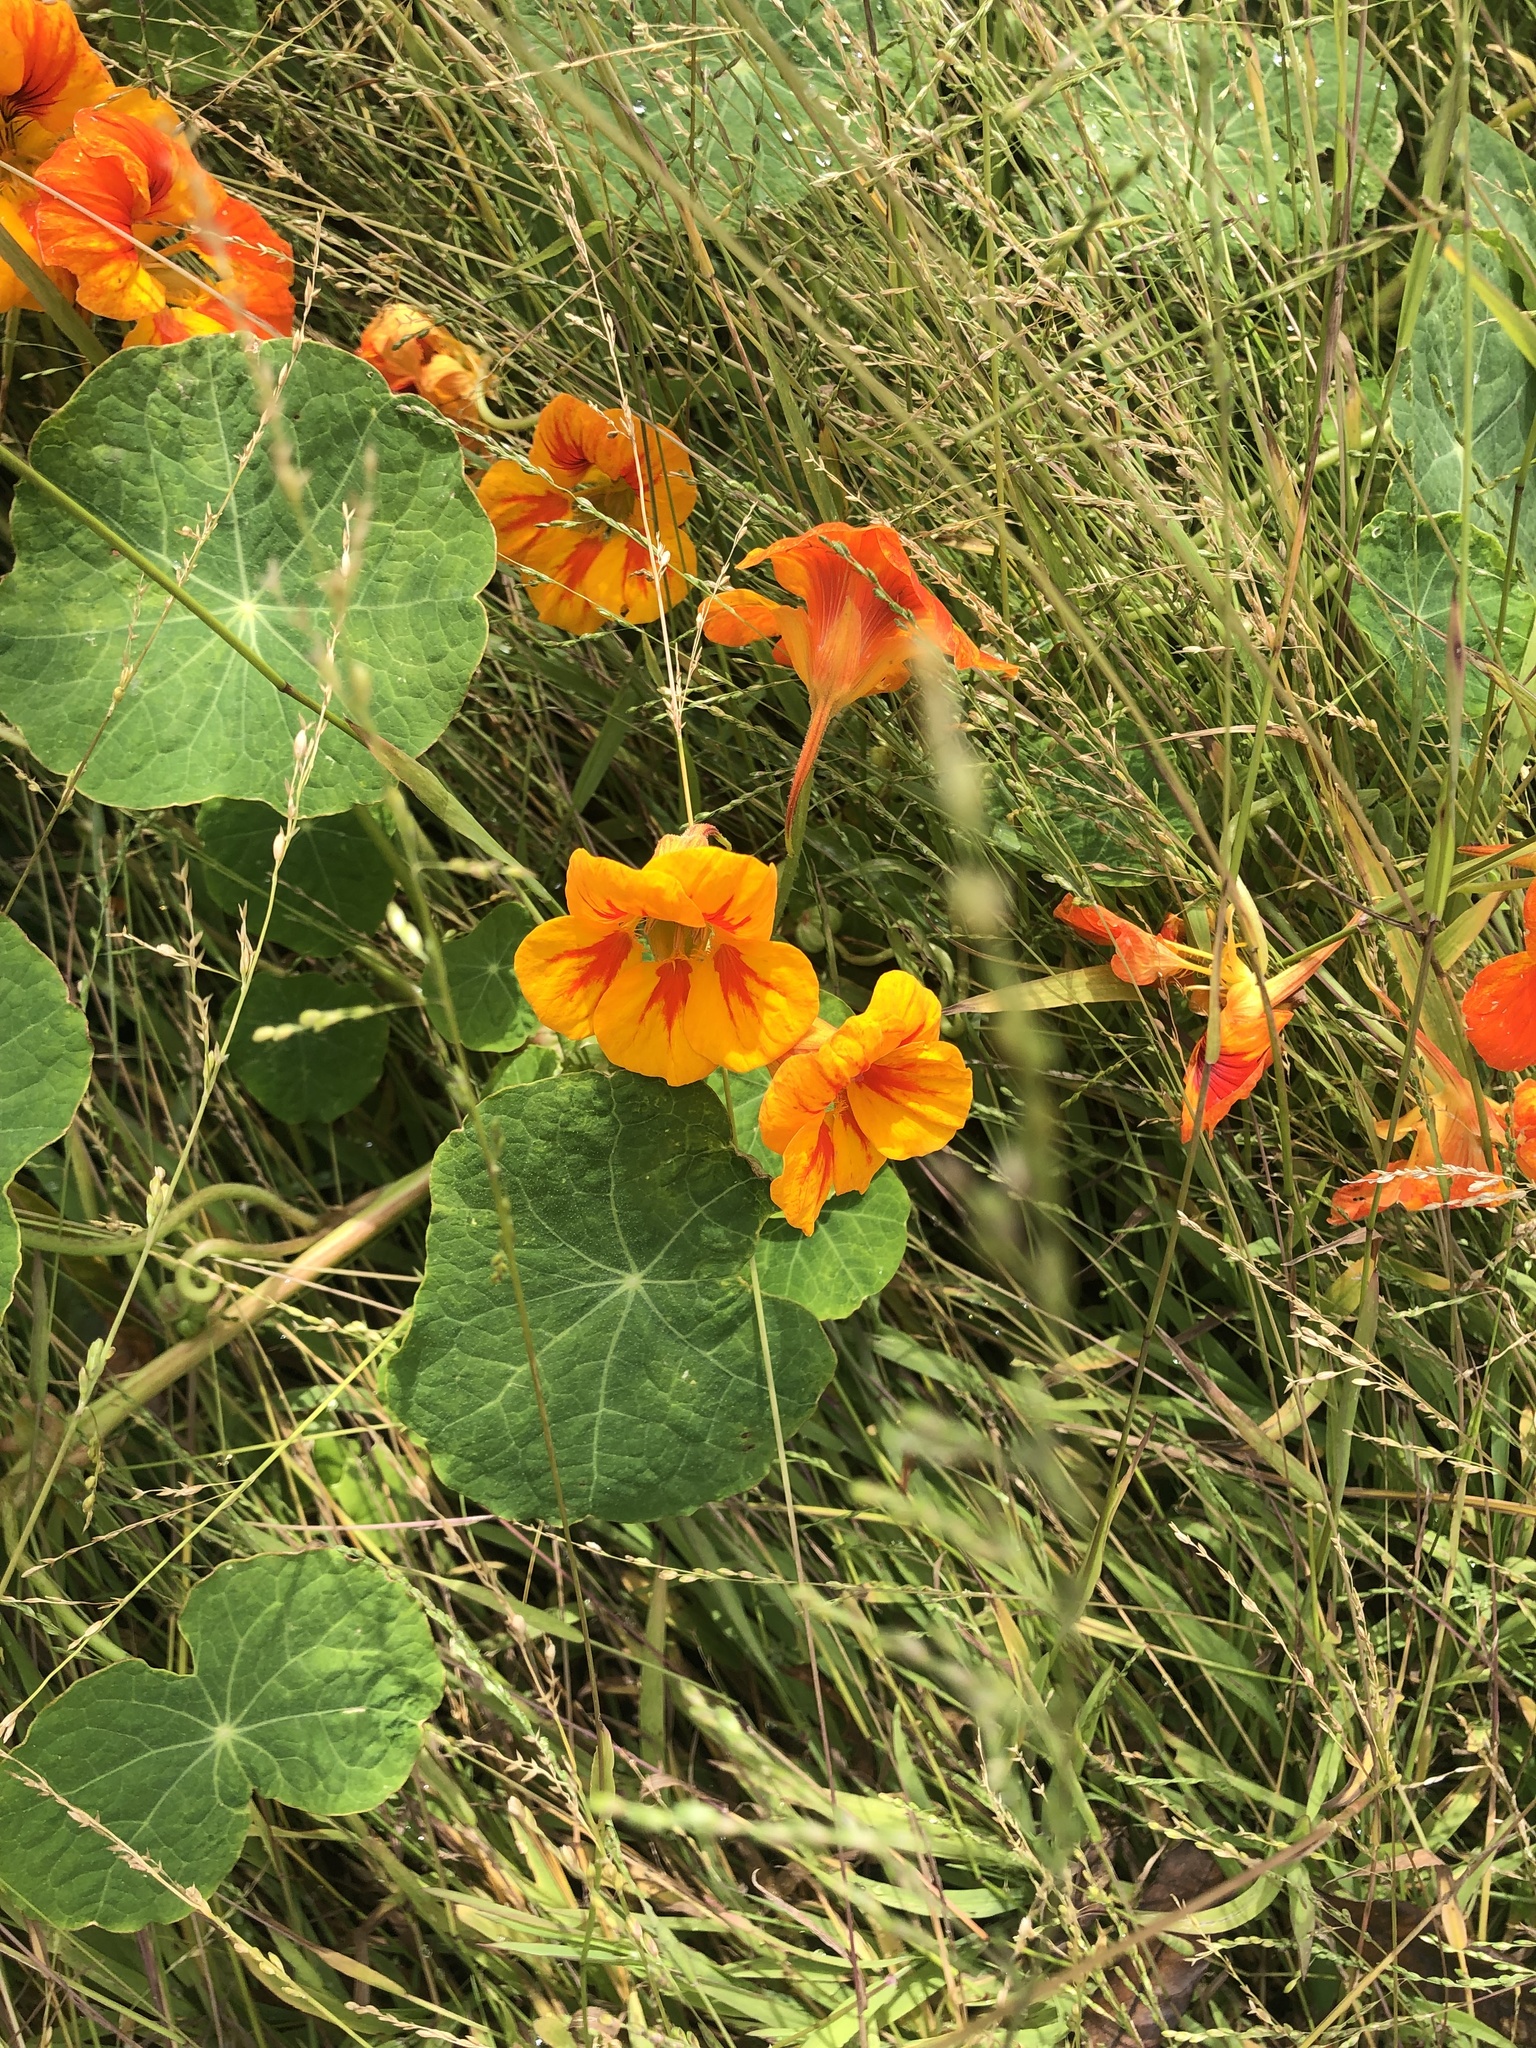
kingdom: Plantae
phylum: Tracheophyta
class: Magnoliopsida
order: Brassicales
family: Tropaeolaceae
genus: Tropaeolum
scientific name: Tropaeolum majus
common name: Nasturtium
